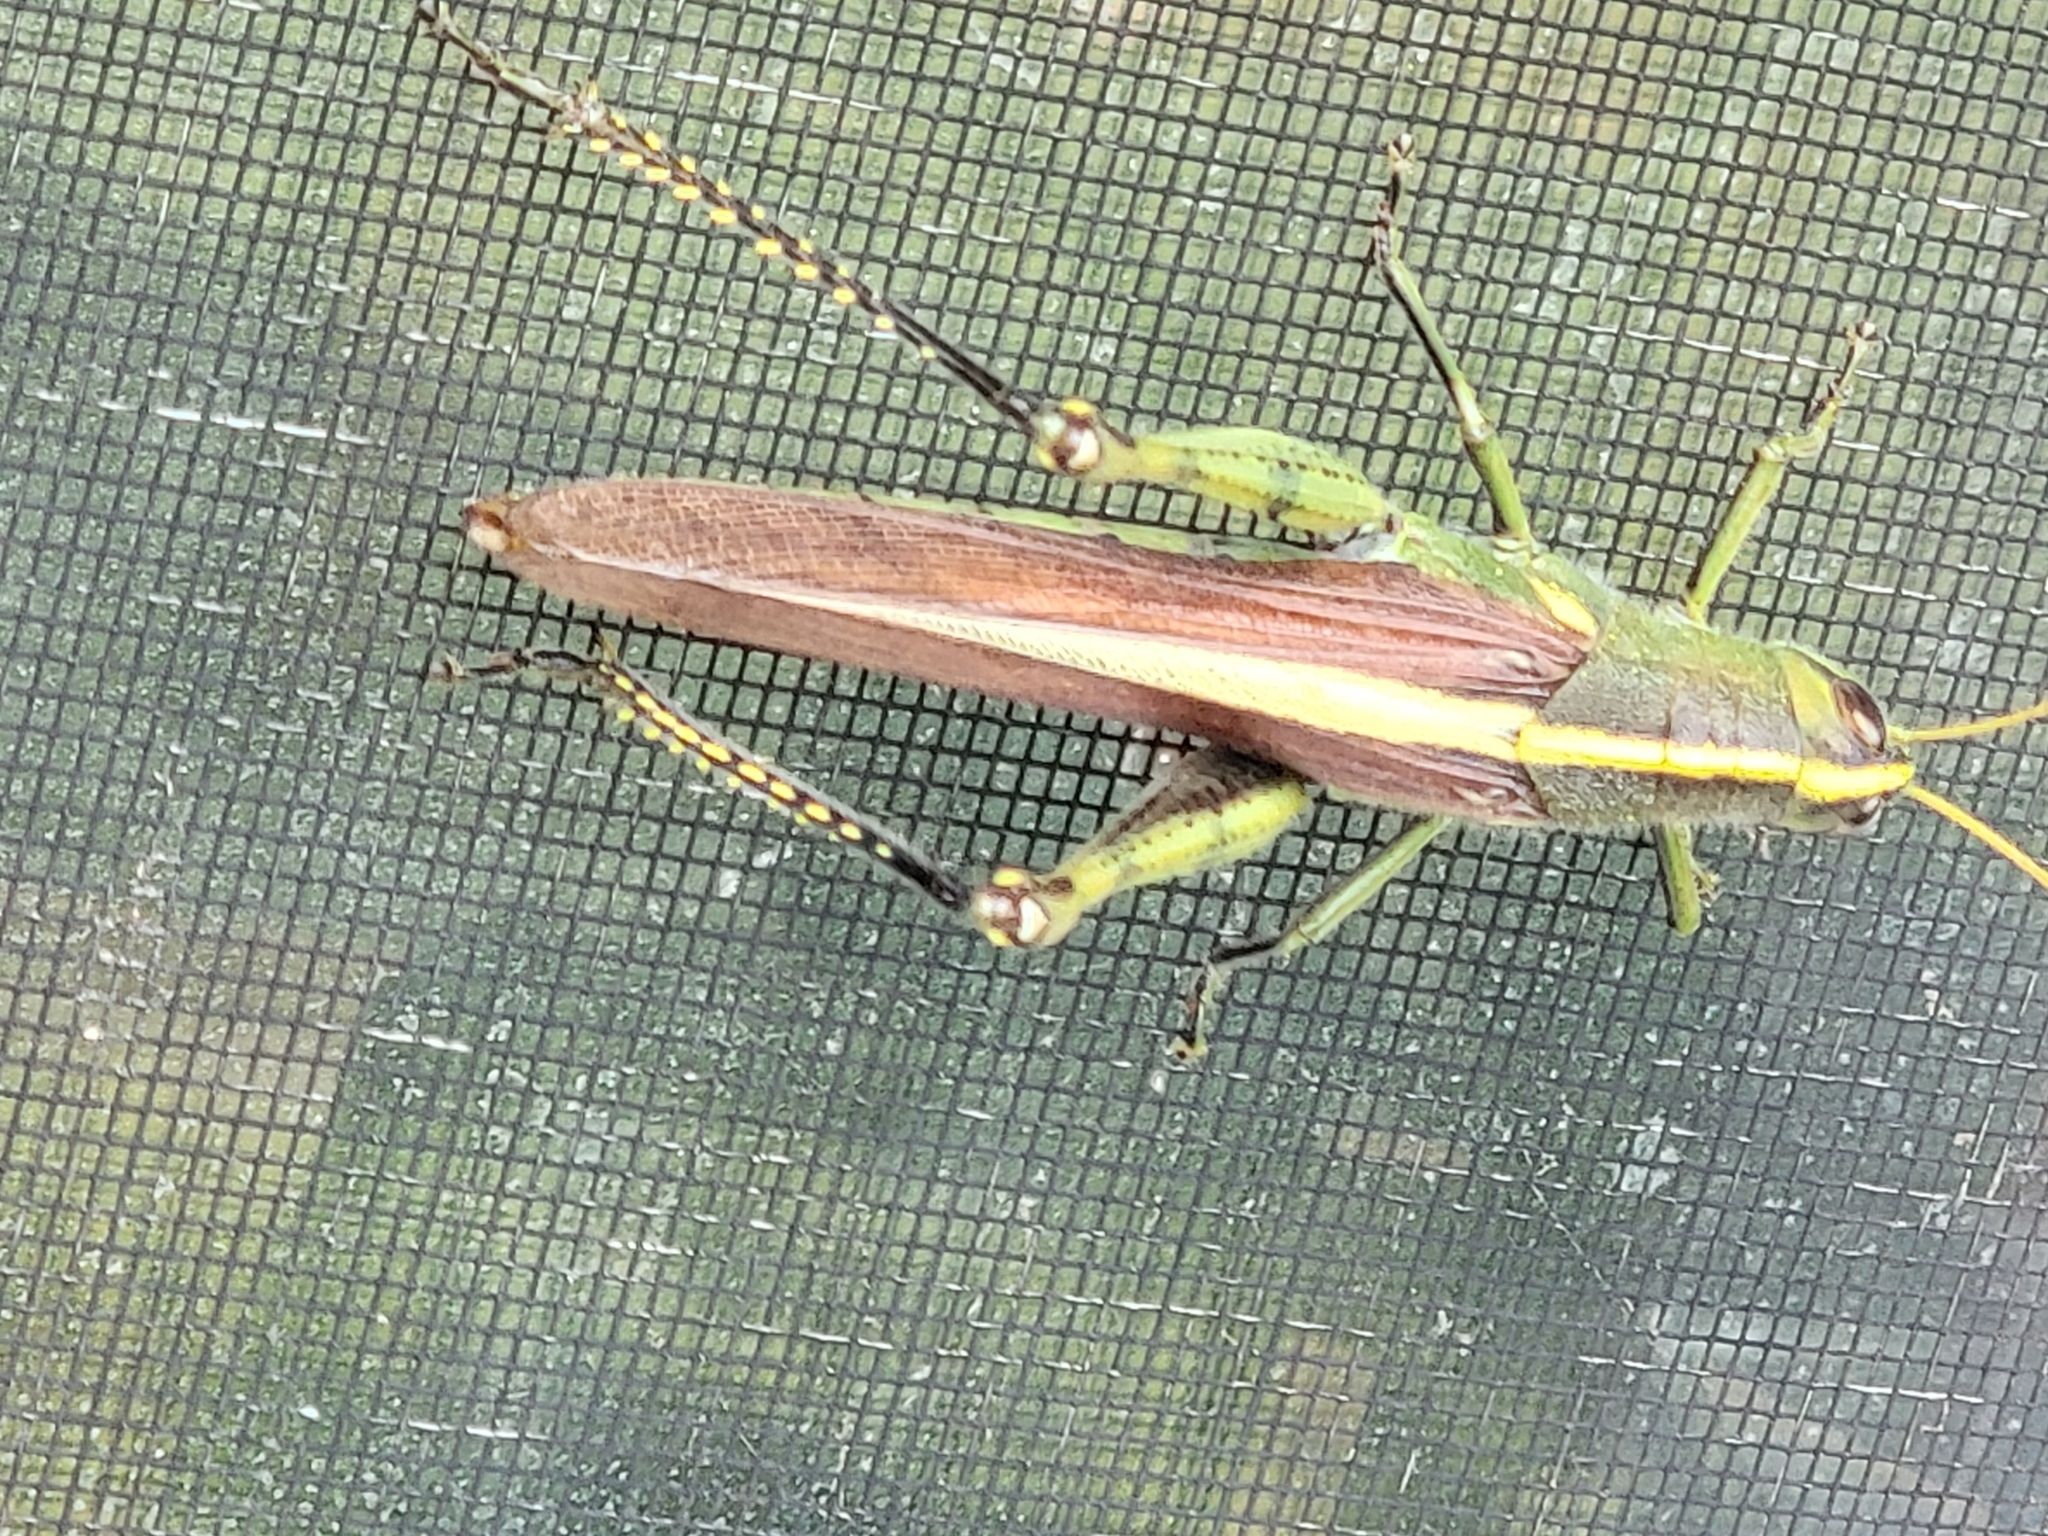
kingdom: Animalia
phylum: Arthropoda
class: Insecta
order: Orthoptera
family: Acrididae
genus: Schistocerca
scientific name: Schistocerca obscura
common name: Obscure bird grasshopper
